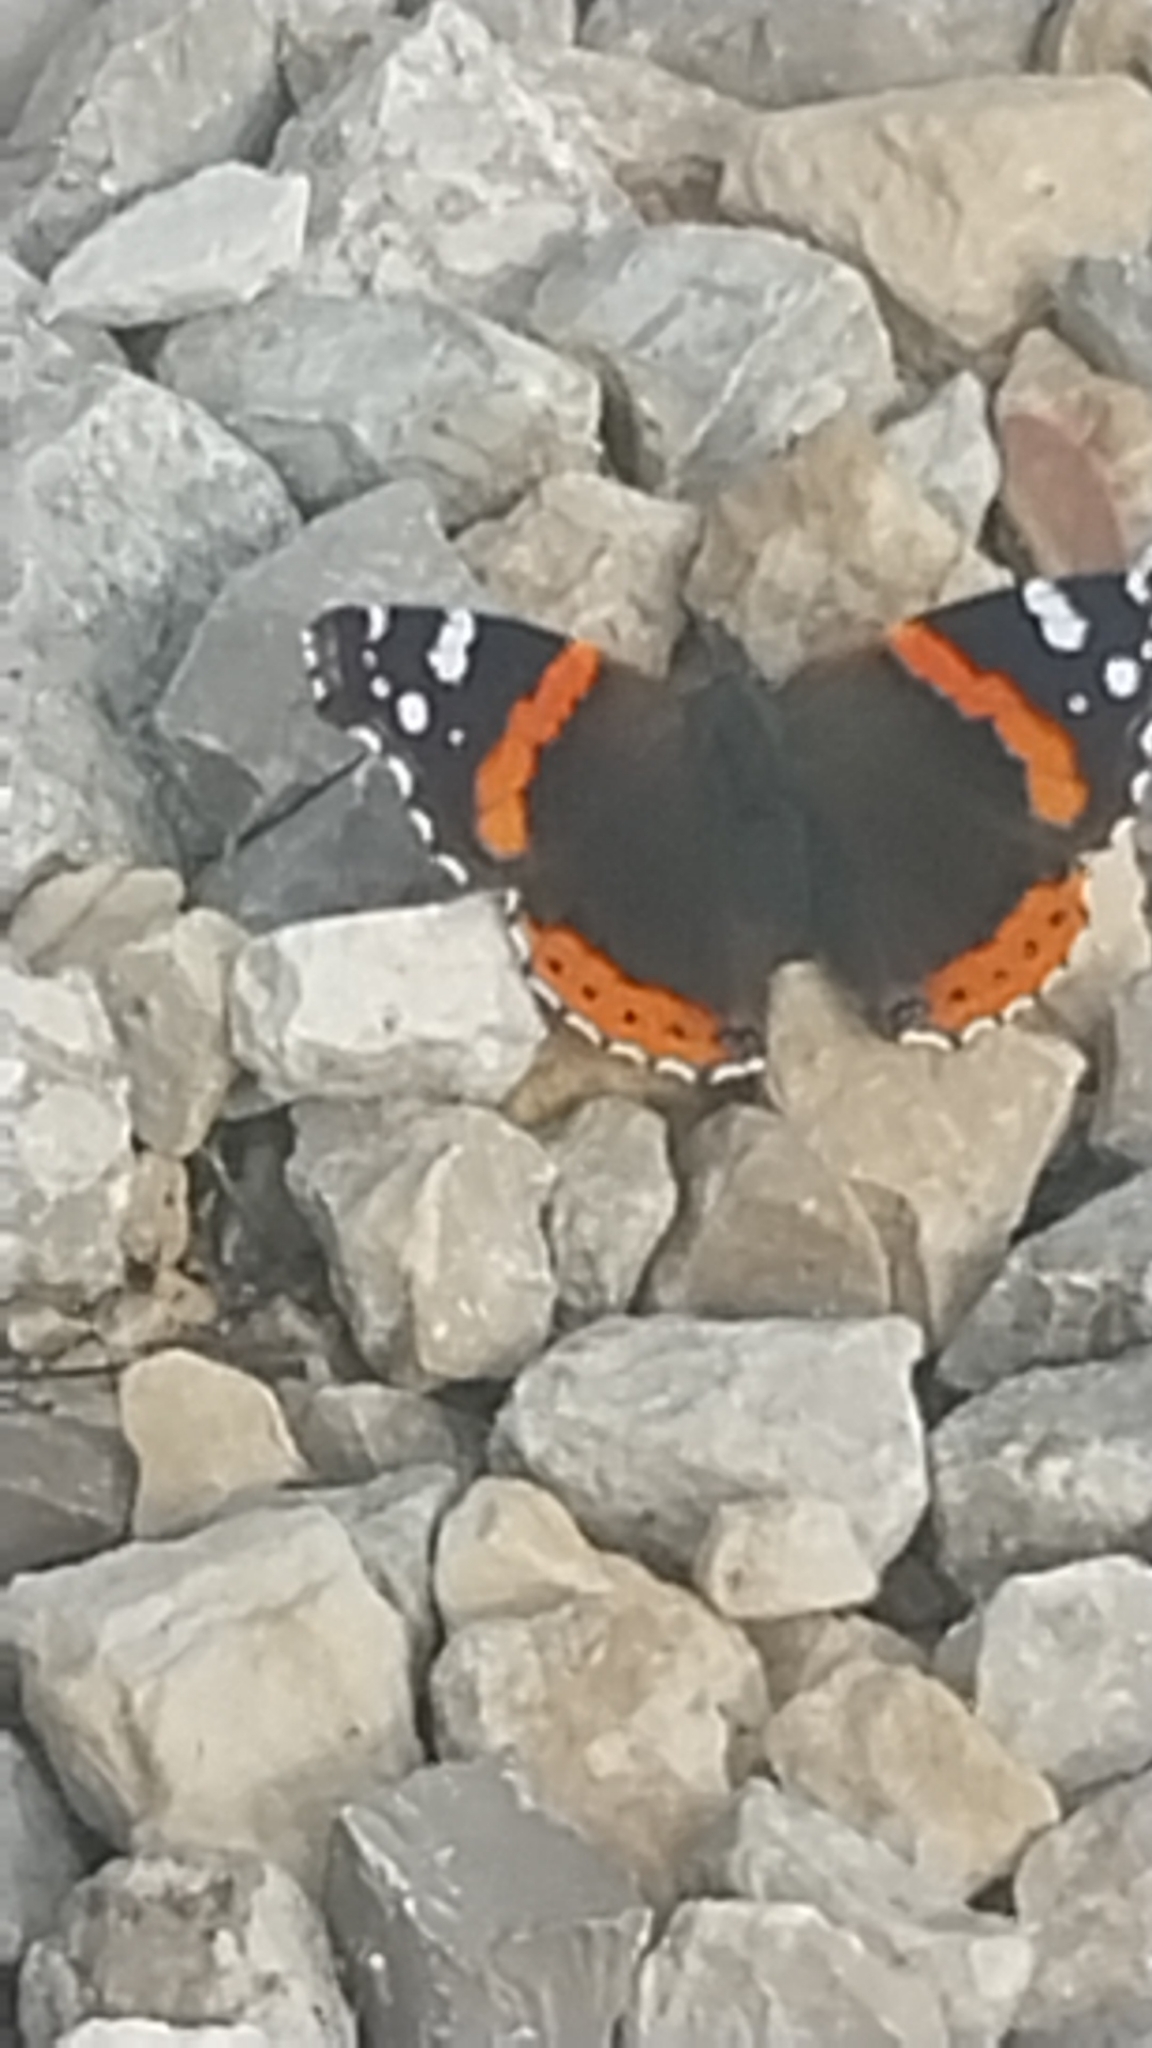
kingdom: Animalia
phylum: Arthropoda
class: Insecta
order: Lepidoptera
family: Nymphalidae
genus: Vanessa
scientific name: Vanessa atalanta
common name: Red admiral
